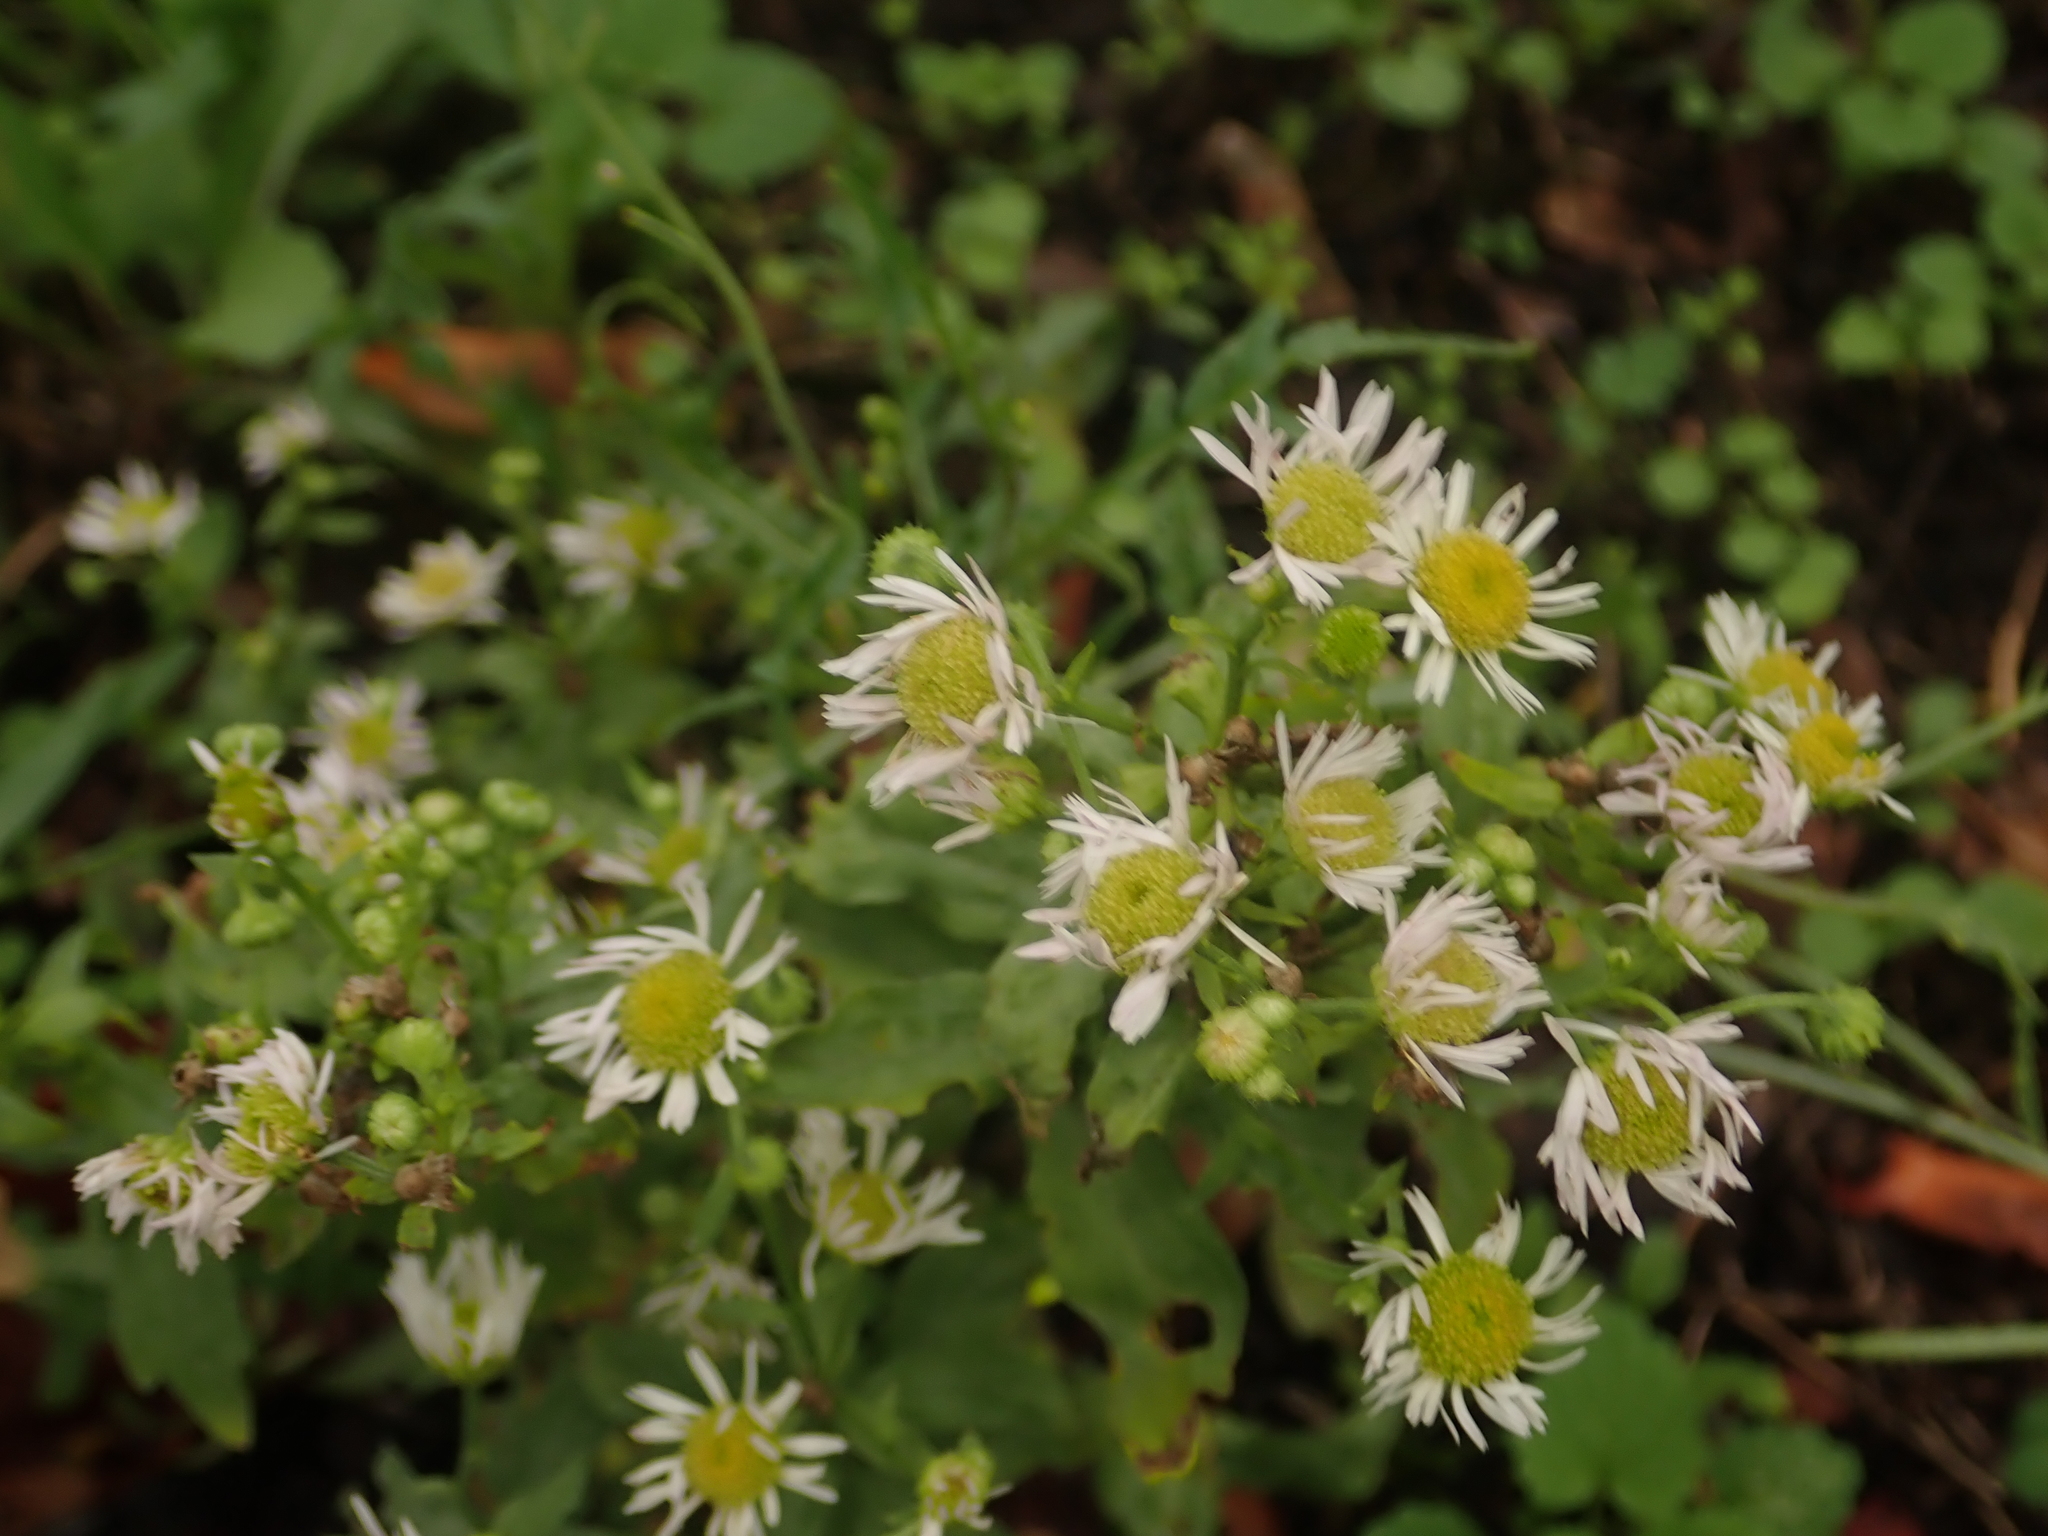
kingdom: Plantae
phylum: Tracheophyta
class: Magnoliopsida
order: Asterales
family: Asteraceae
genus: Erigeron
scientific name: Erigeron annuus
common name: Tall fleabane
